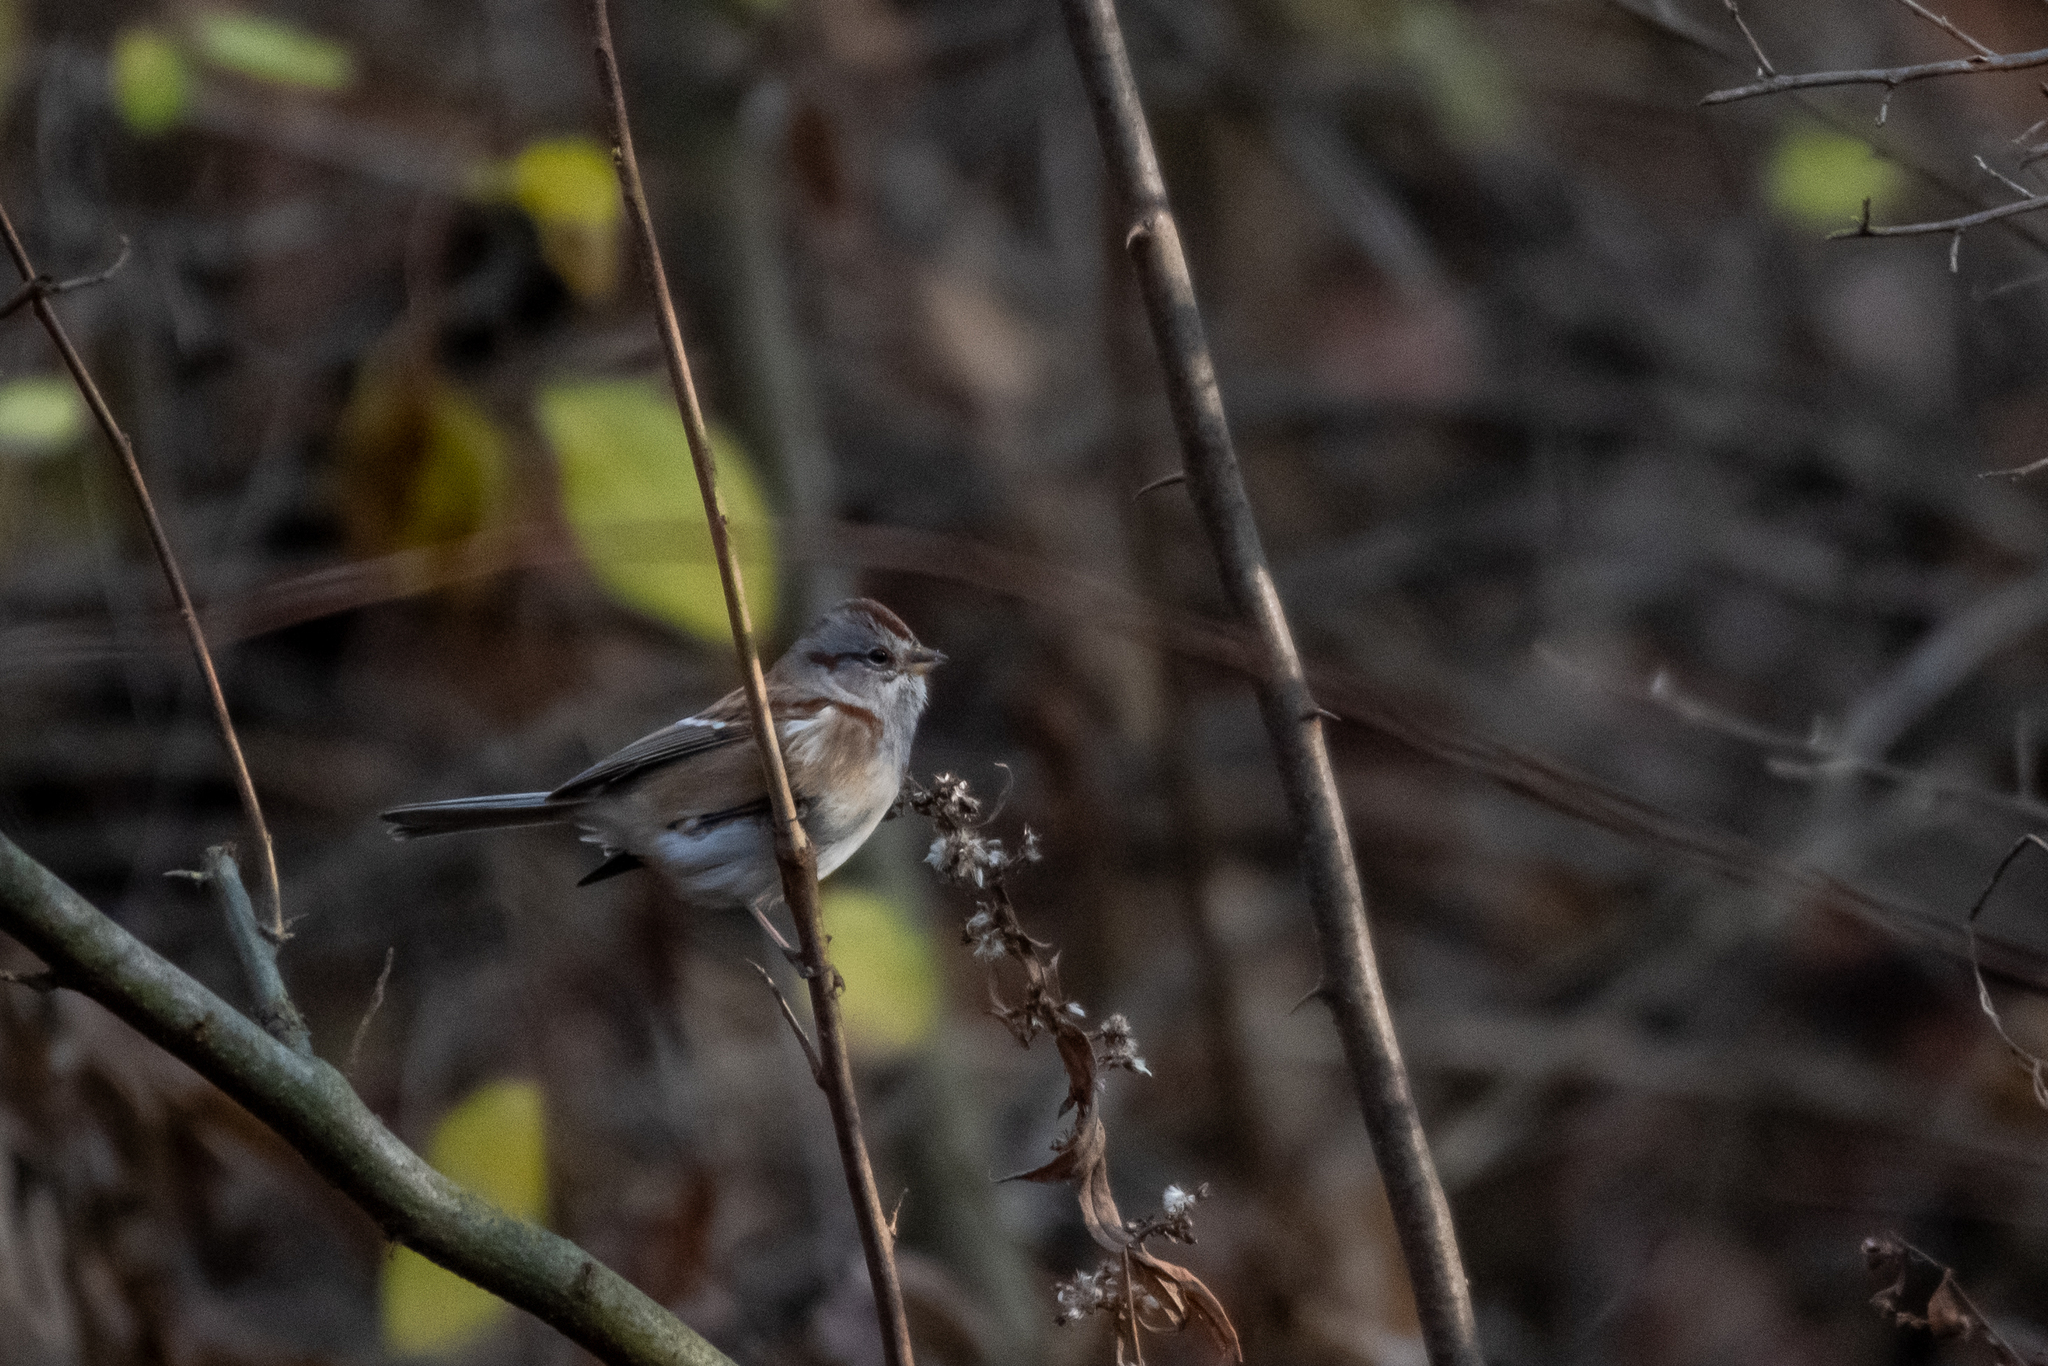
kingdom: Animalia
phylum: Chordata
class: Aves
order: Passeriformes
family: Passerellidae
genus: Spizelloides
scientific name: Spizelloides arborea
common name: American tree sparrow
